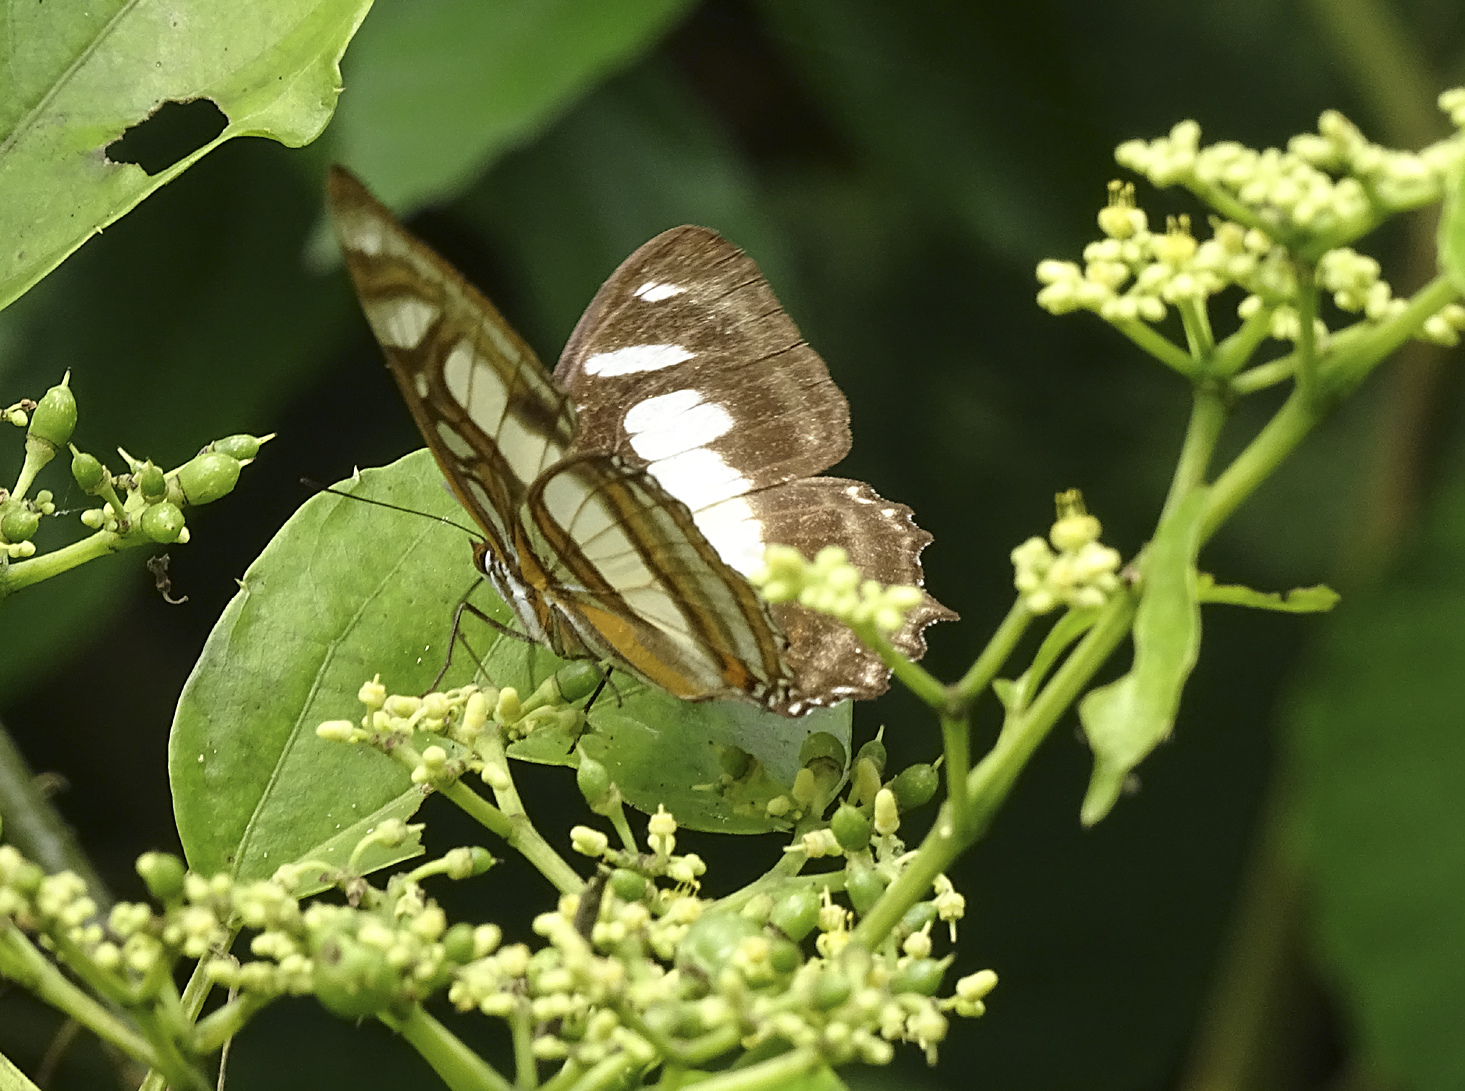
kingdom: Animalia
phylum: Arthropoda
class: Insecta
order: Lepidoptera
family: Nymphalidae
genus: Metamorpha
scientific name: Metamorpha elissa
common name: Elissa page
